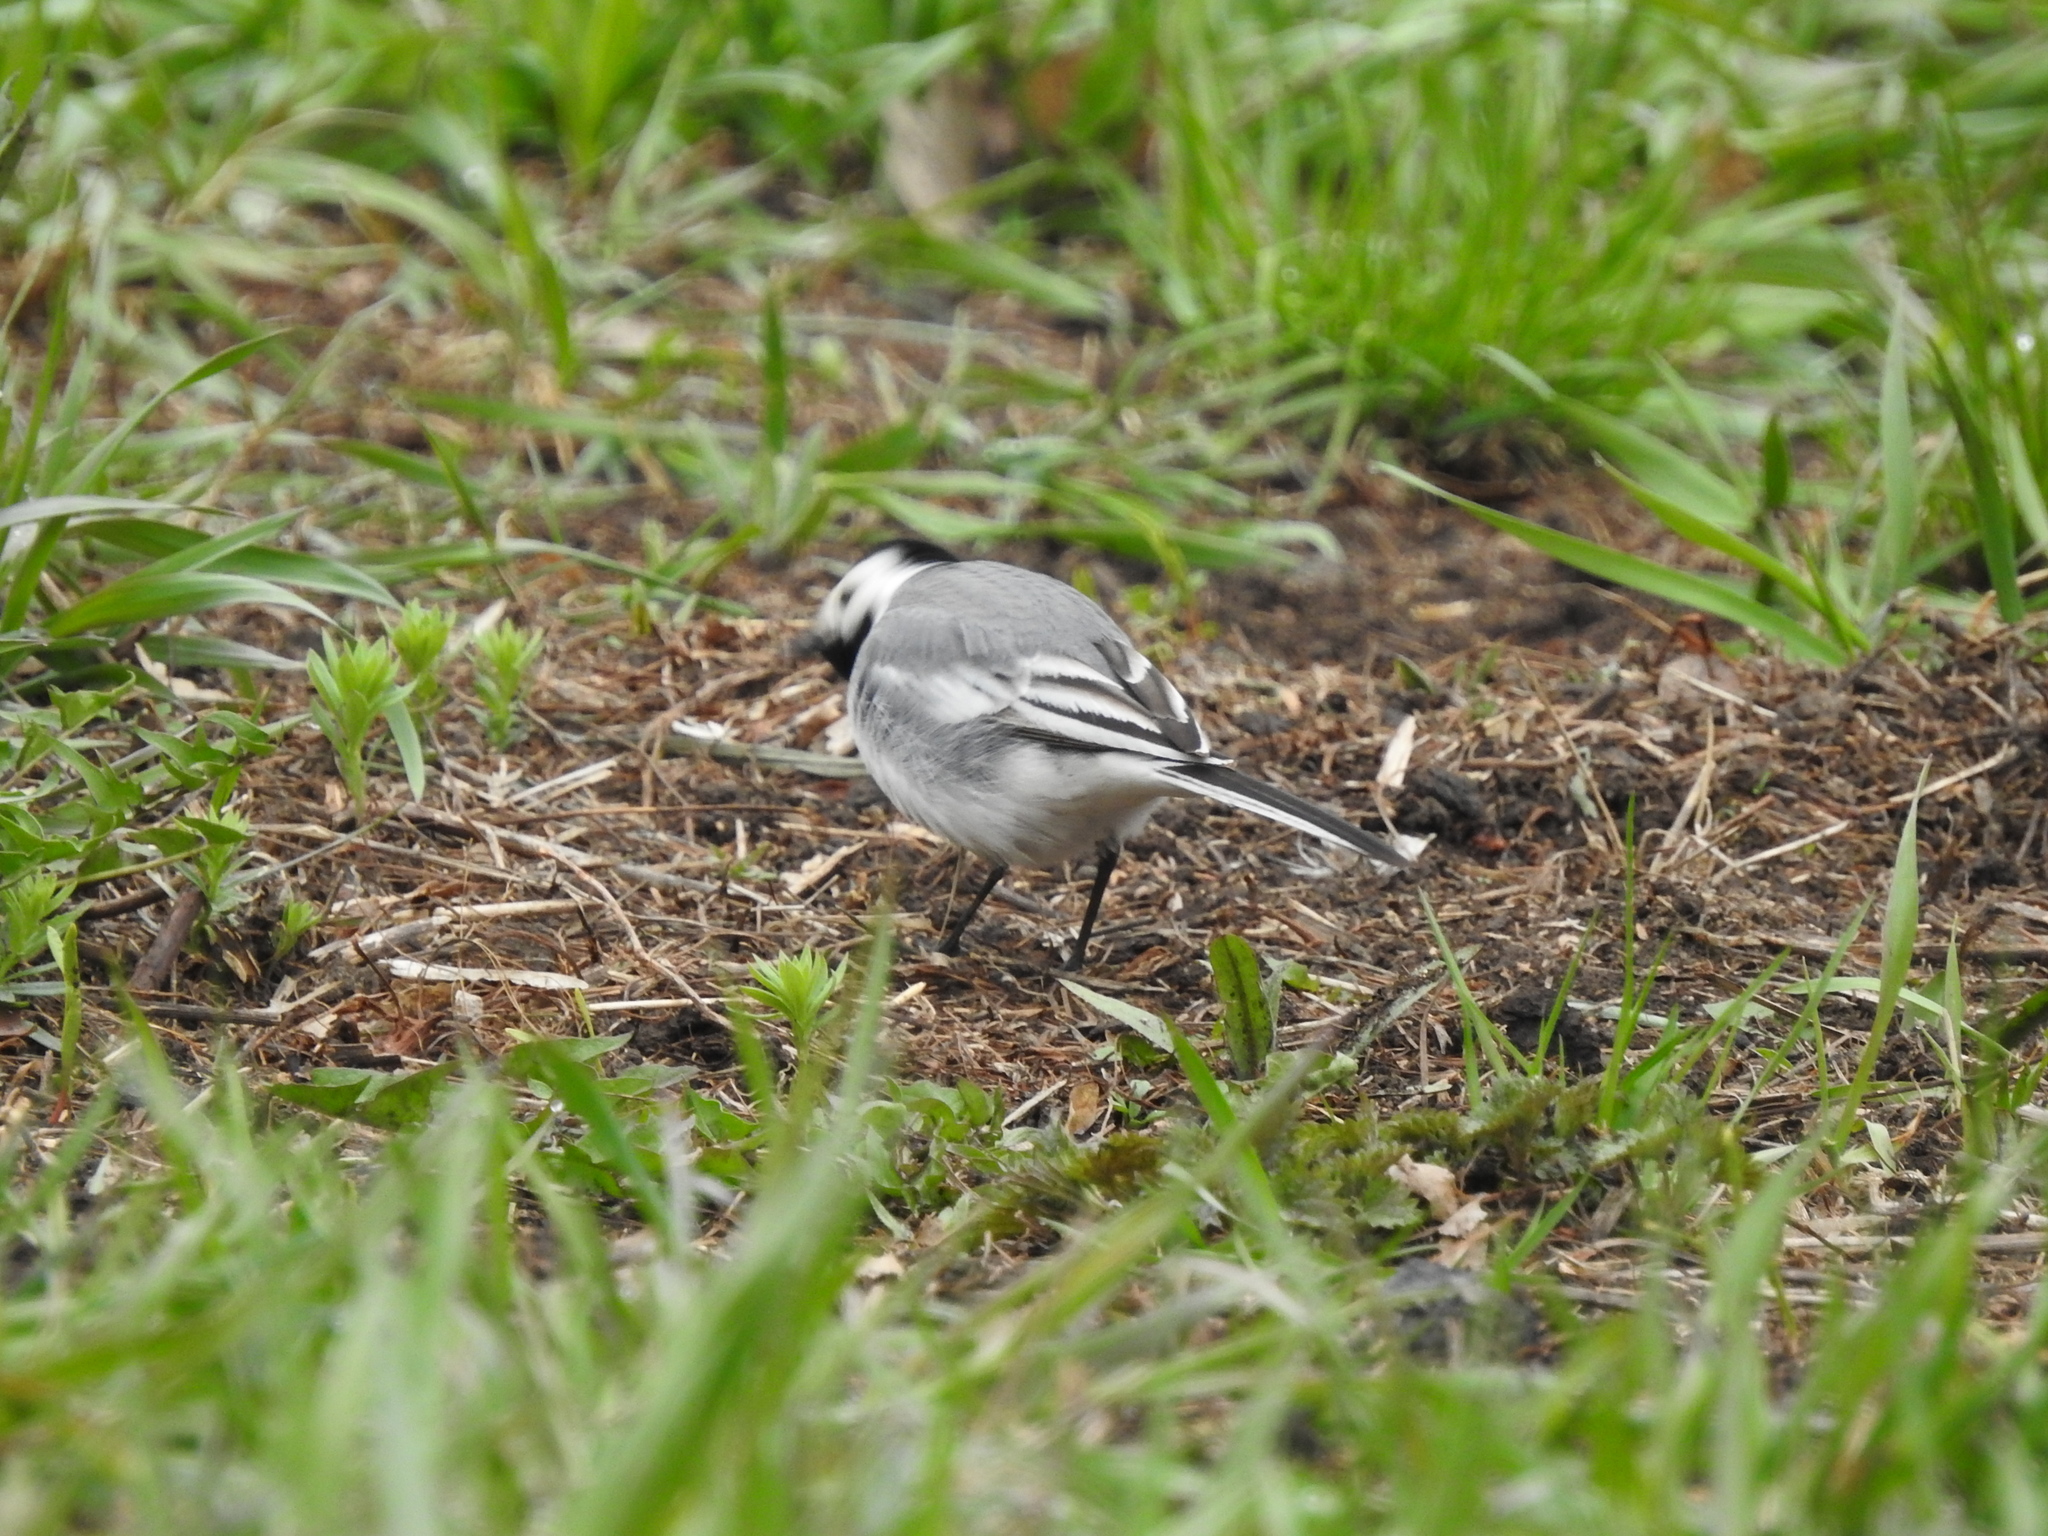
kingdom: Animalia
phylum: Chordata
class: Aves
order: Passeriformes
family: Motacillidae
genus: Motacilla
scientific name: Motacilla alba
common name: White wagtail
